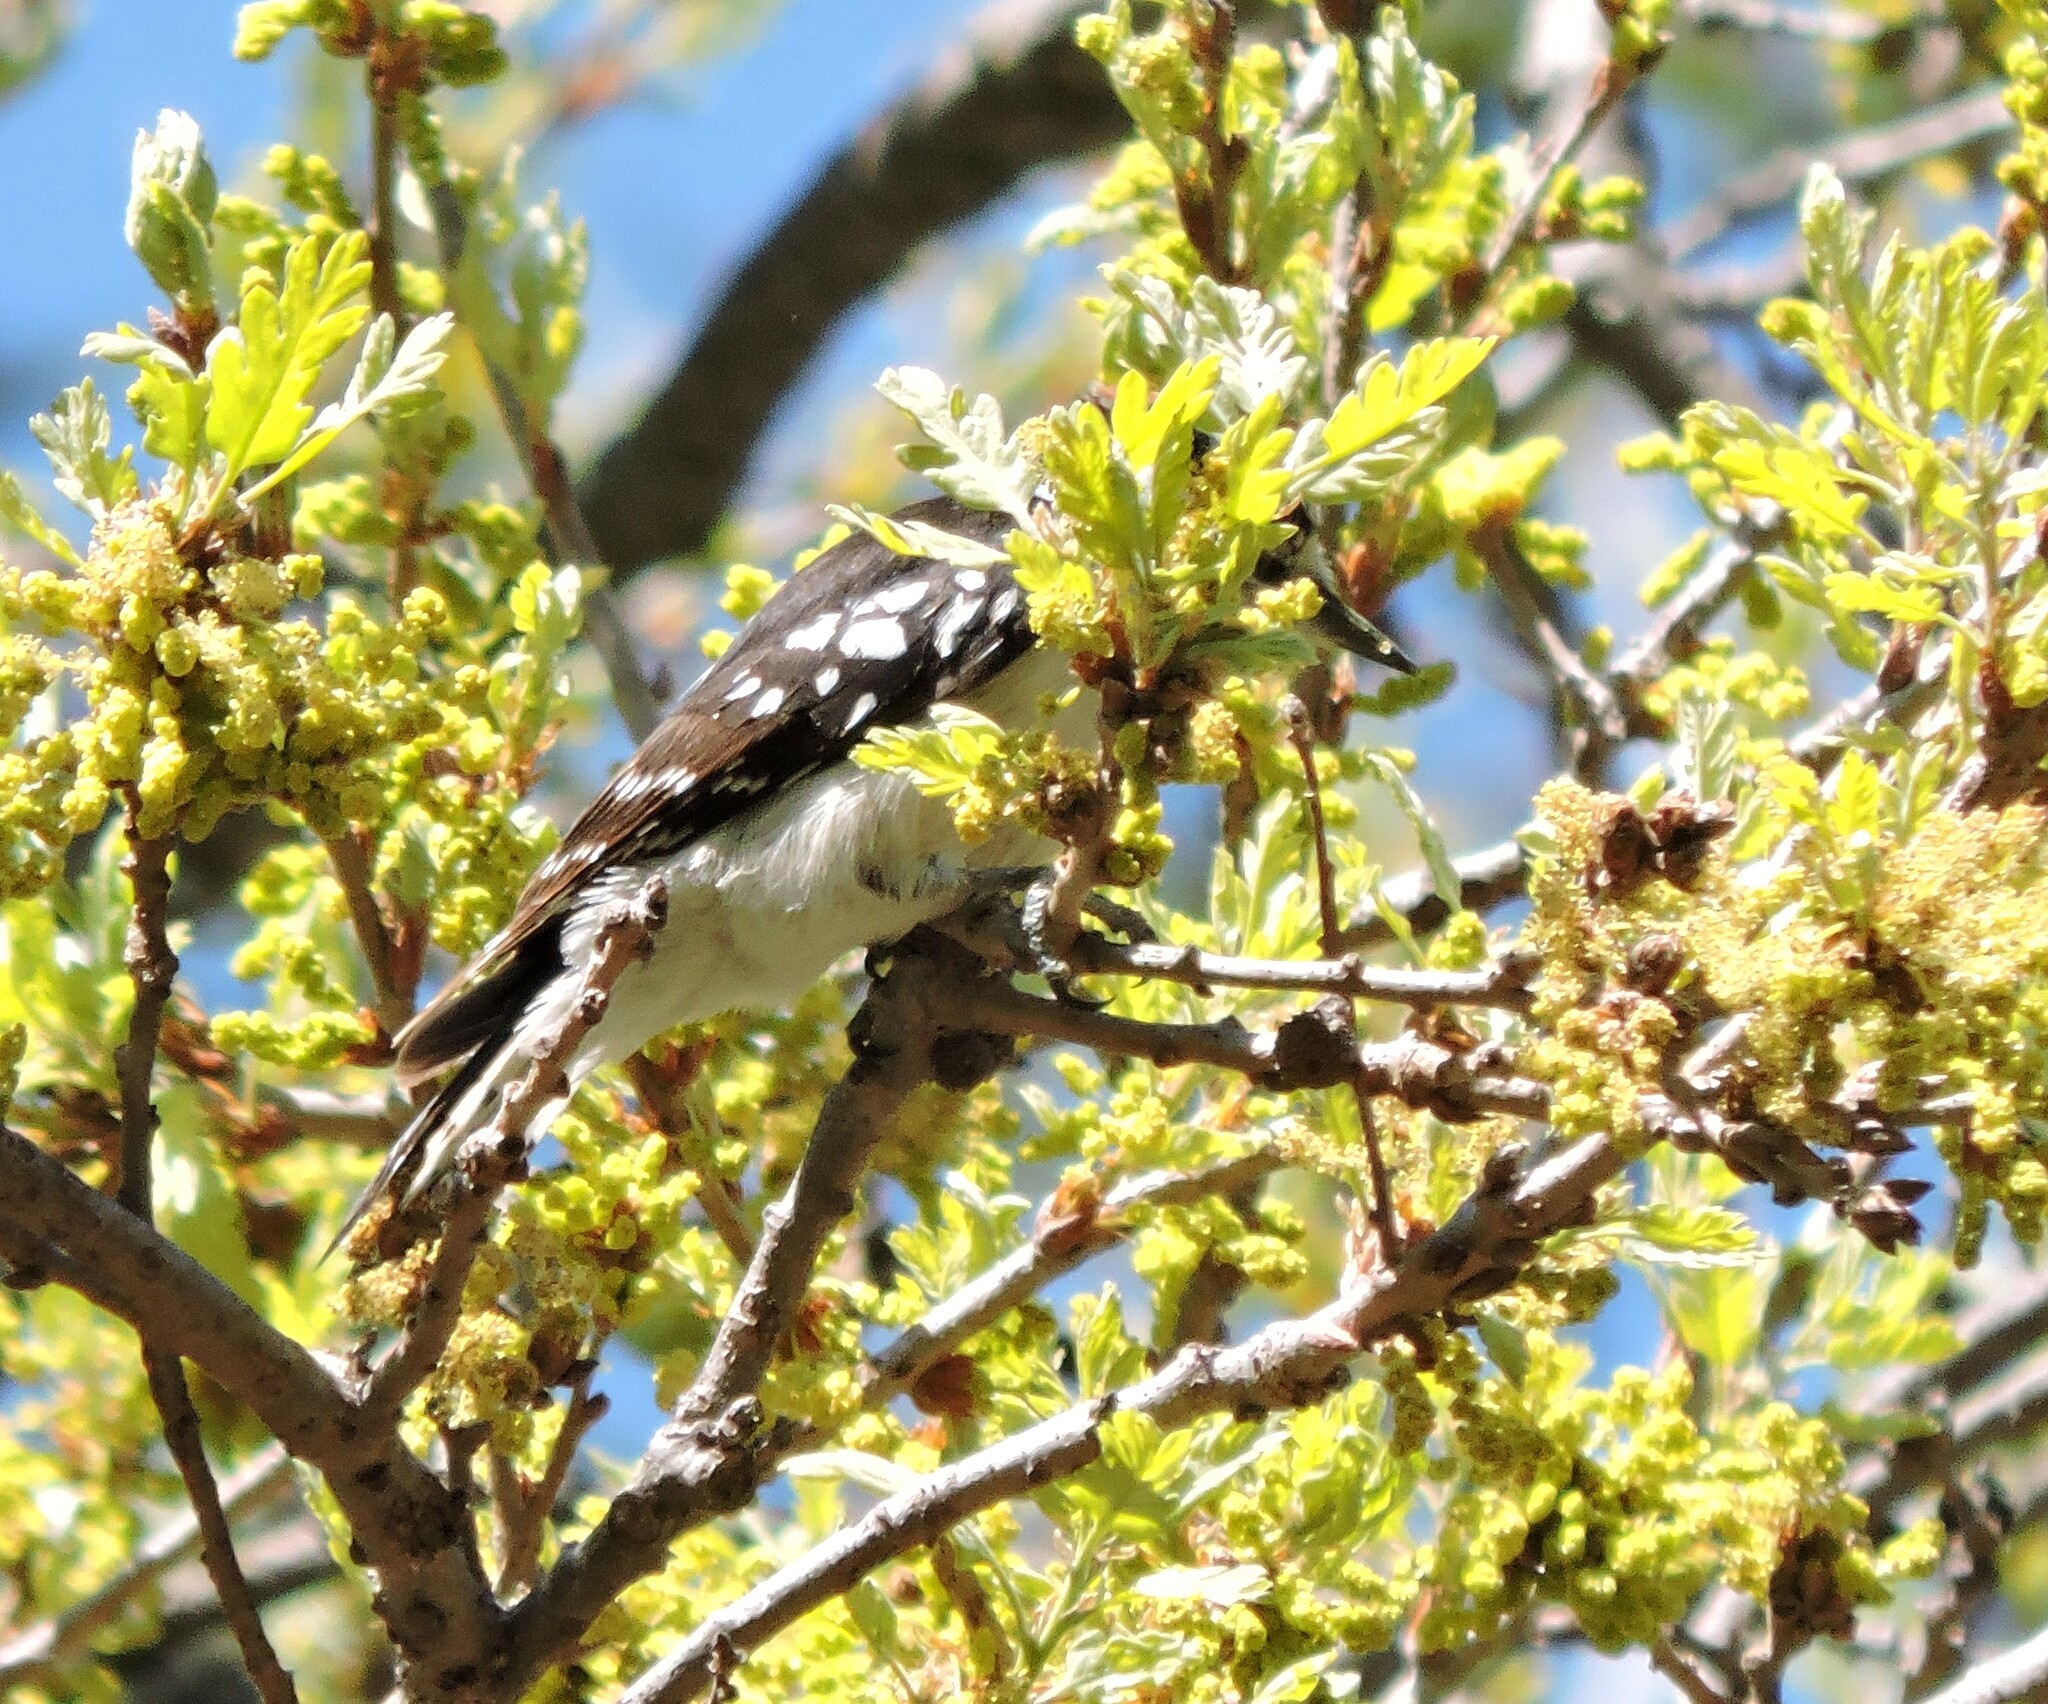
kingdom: Animalia
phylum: Chordata
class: Aves
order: Piciformes
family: Picidae
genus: Dryobates
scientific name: Dryobates pubescens
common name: Downy woodpecker
